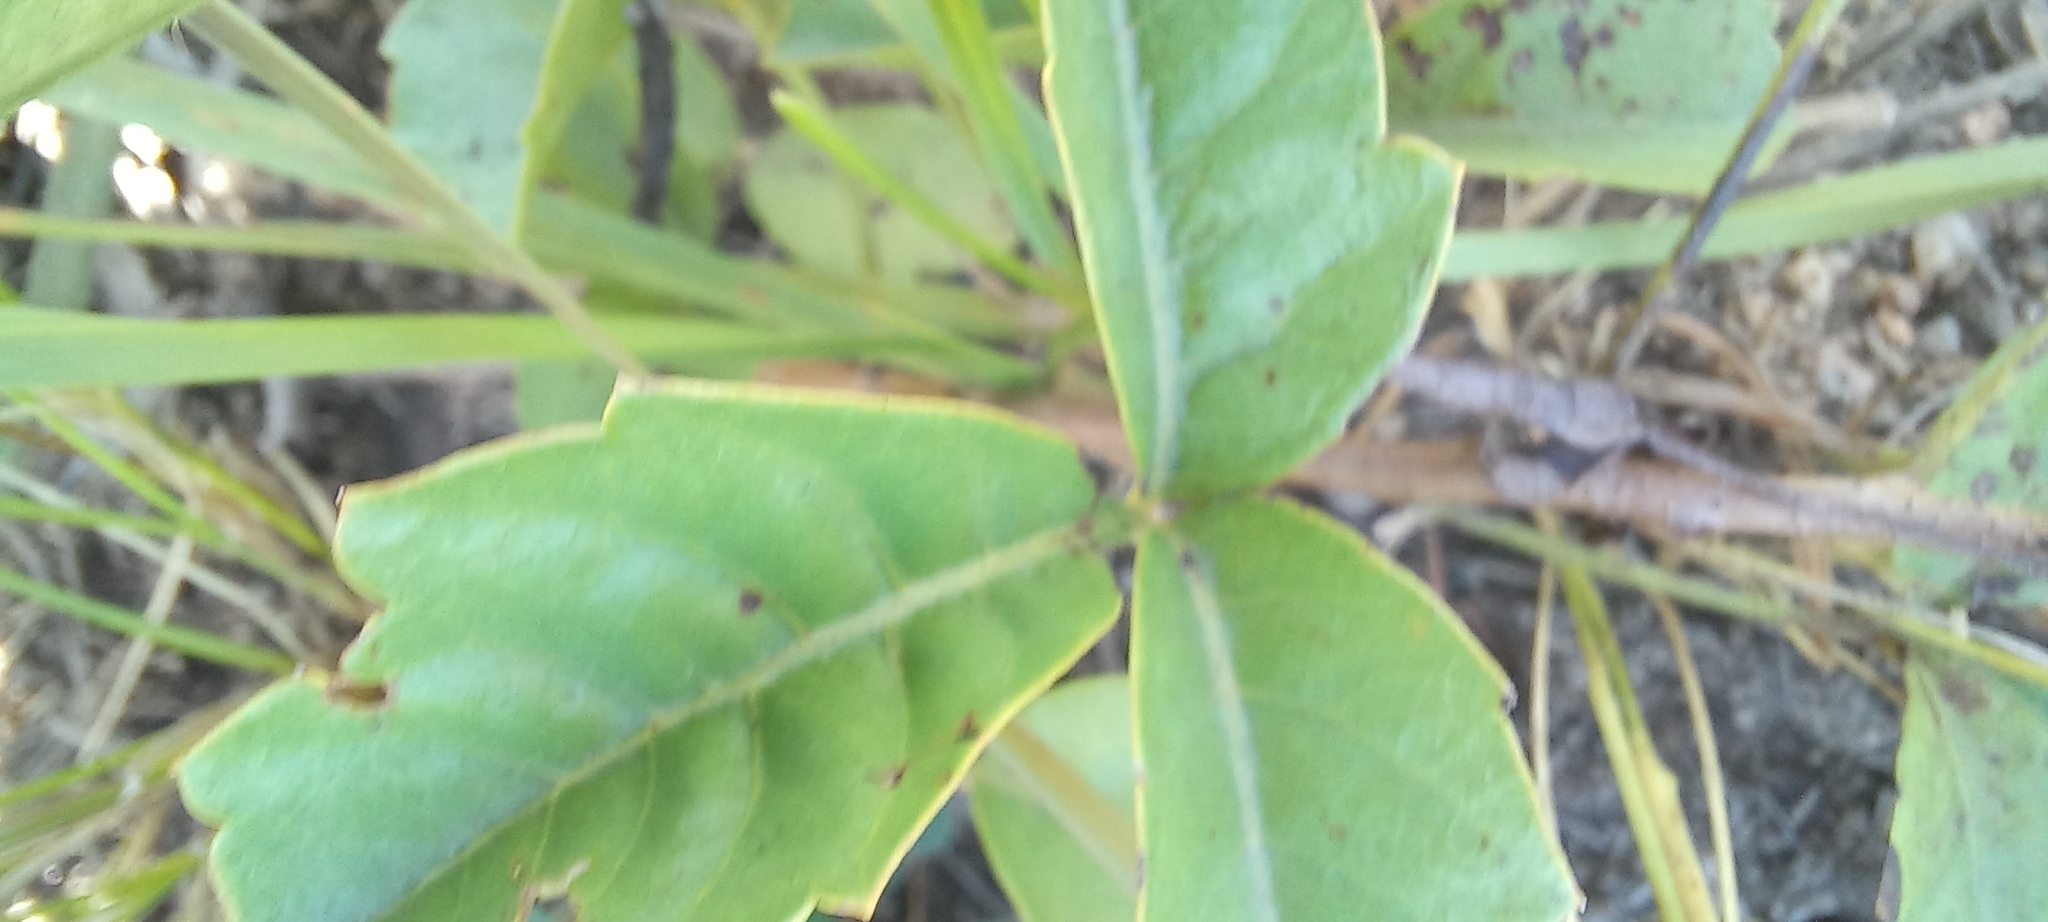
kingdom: Plantae
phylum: Tracheophyta
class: Magnoliopsida
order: Sapindales
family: Anacardiaceae
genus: Searsia
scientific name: Searsia dentata
